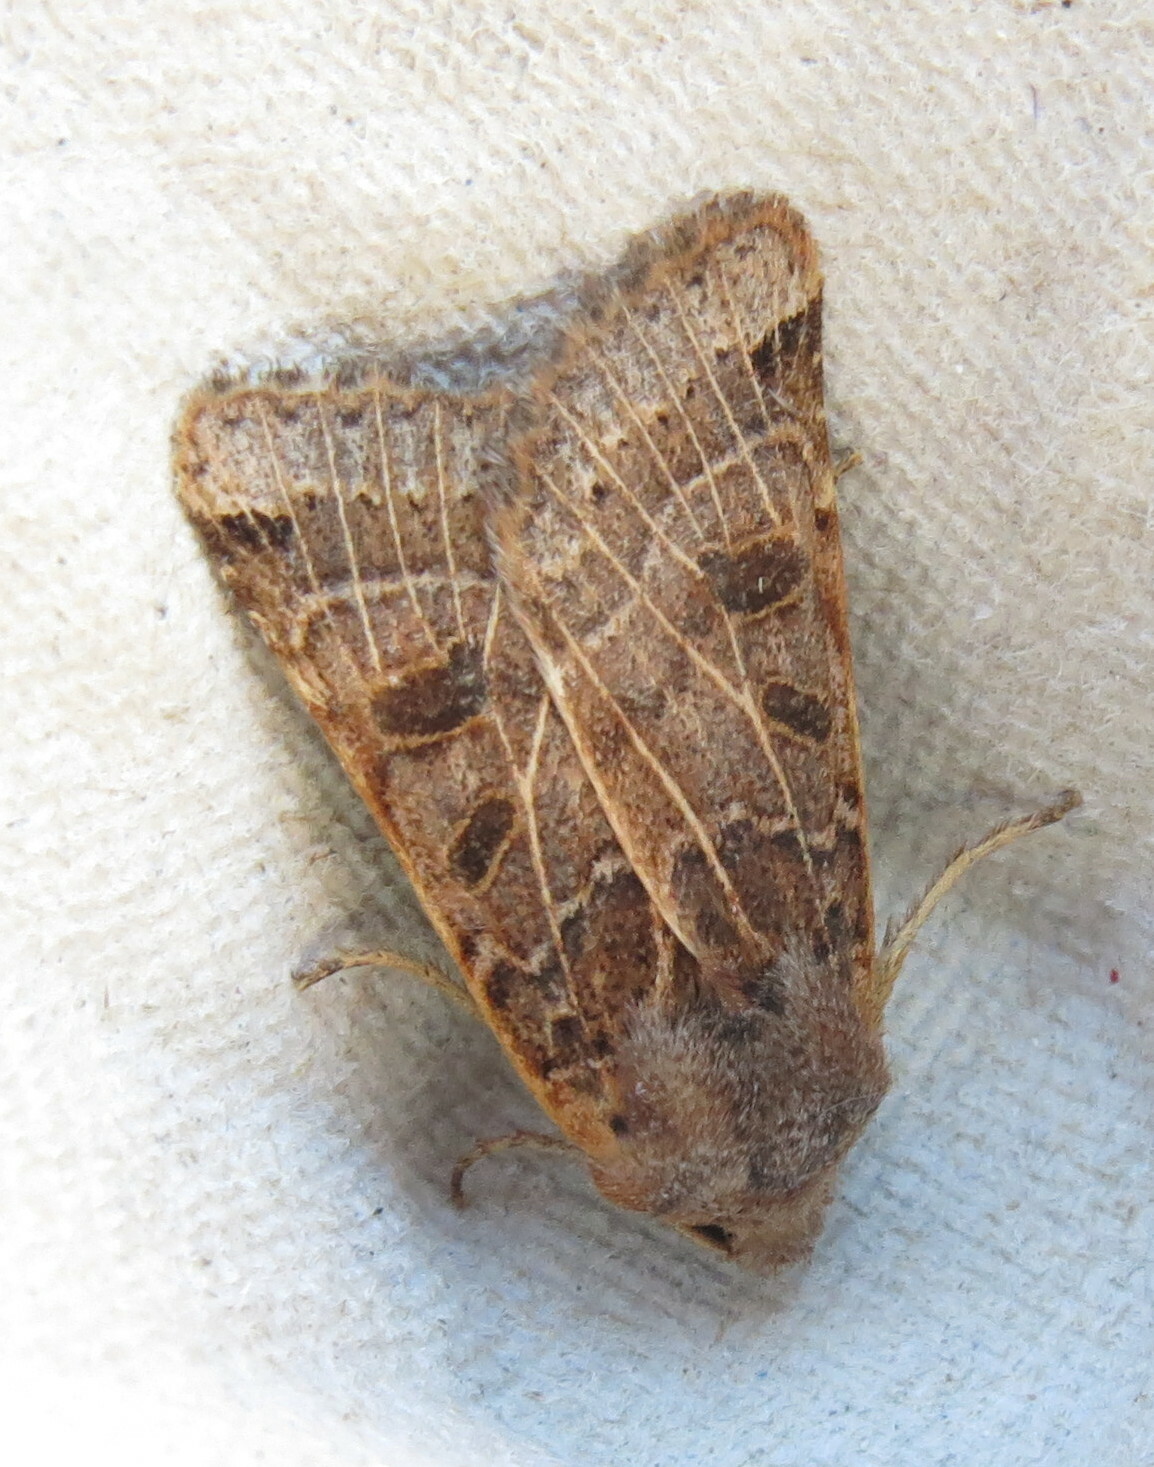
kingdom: Animalia
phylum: Arthropoda
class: Insecta
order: Lepidoptera
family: Noctuidae
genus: Agrochola
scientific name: Agrochola lunosa
